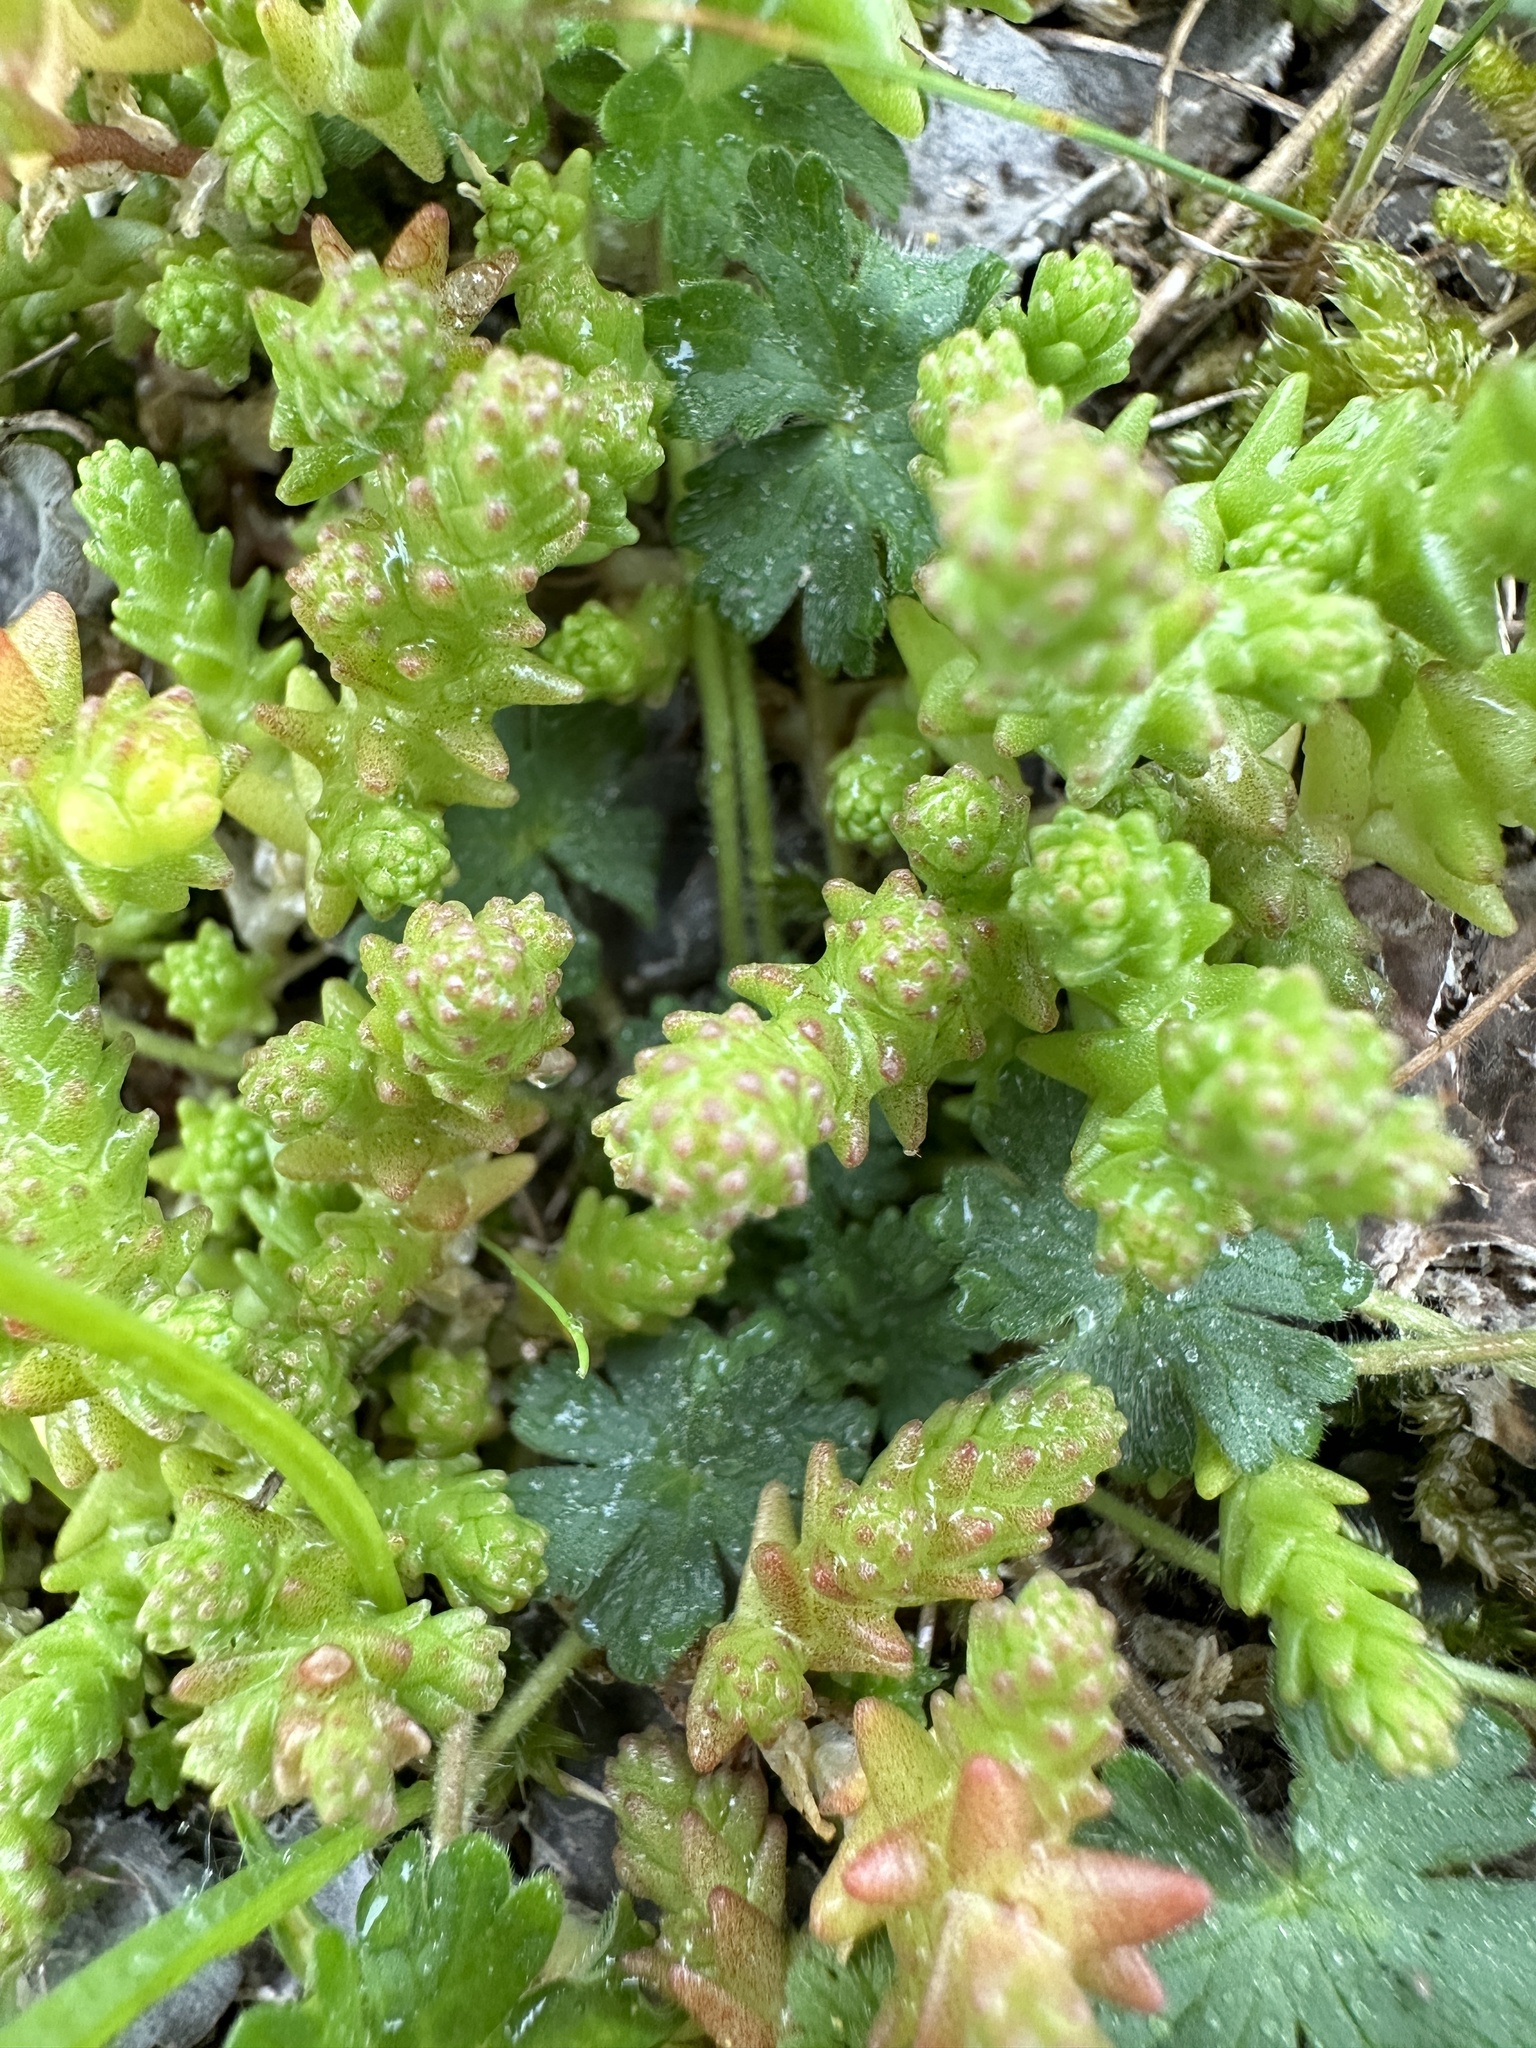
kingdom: Plantae
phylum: Tracheophyta
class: Magnoliopsida
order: Saxifragales
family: Crassulaceae
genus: Sedum
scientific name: Sedum acre
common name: Biting stonecrop
